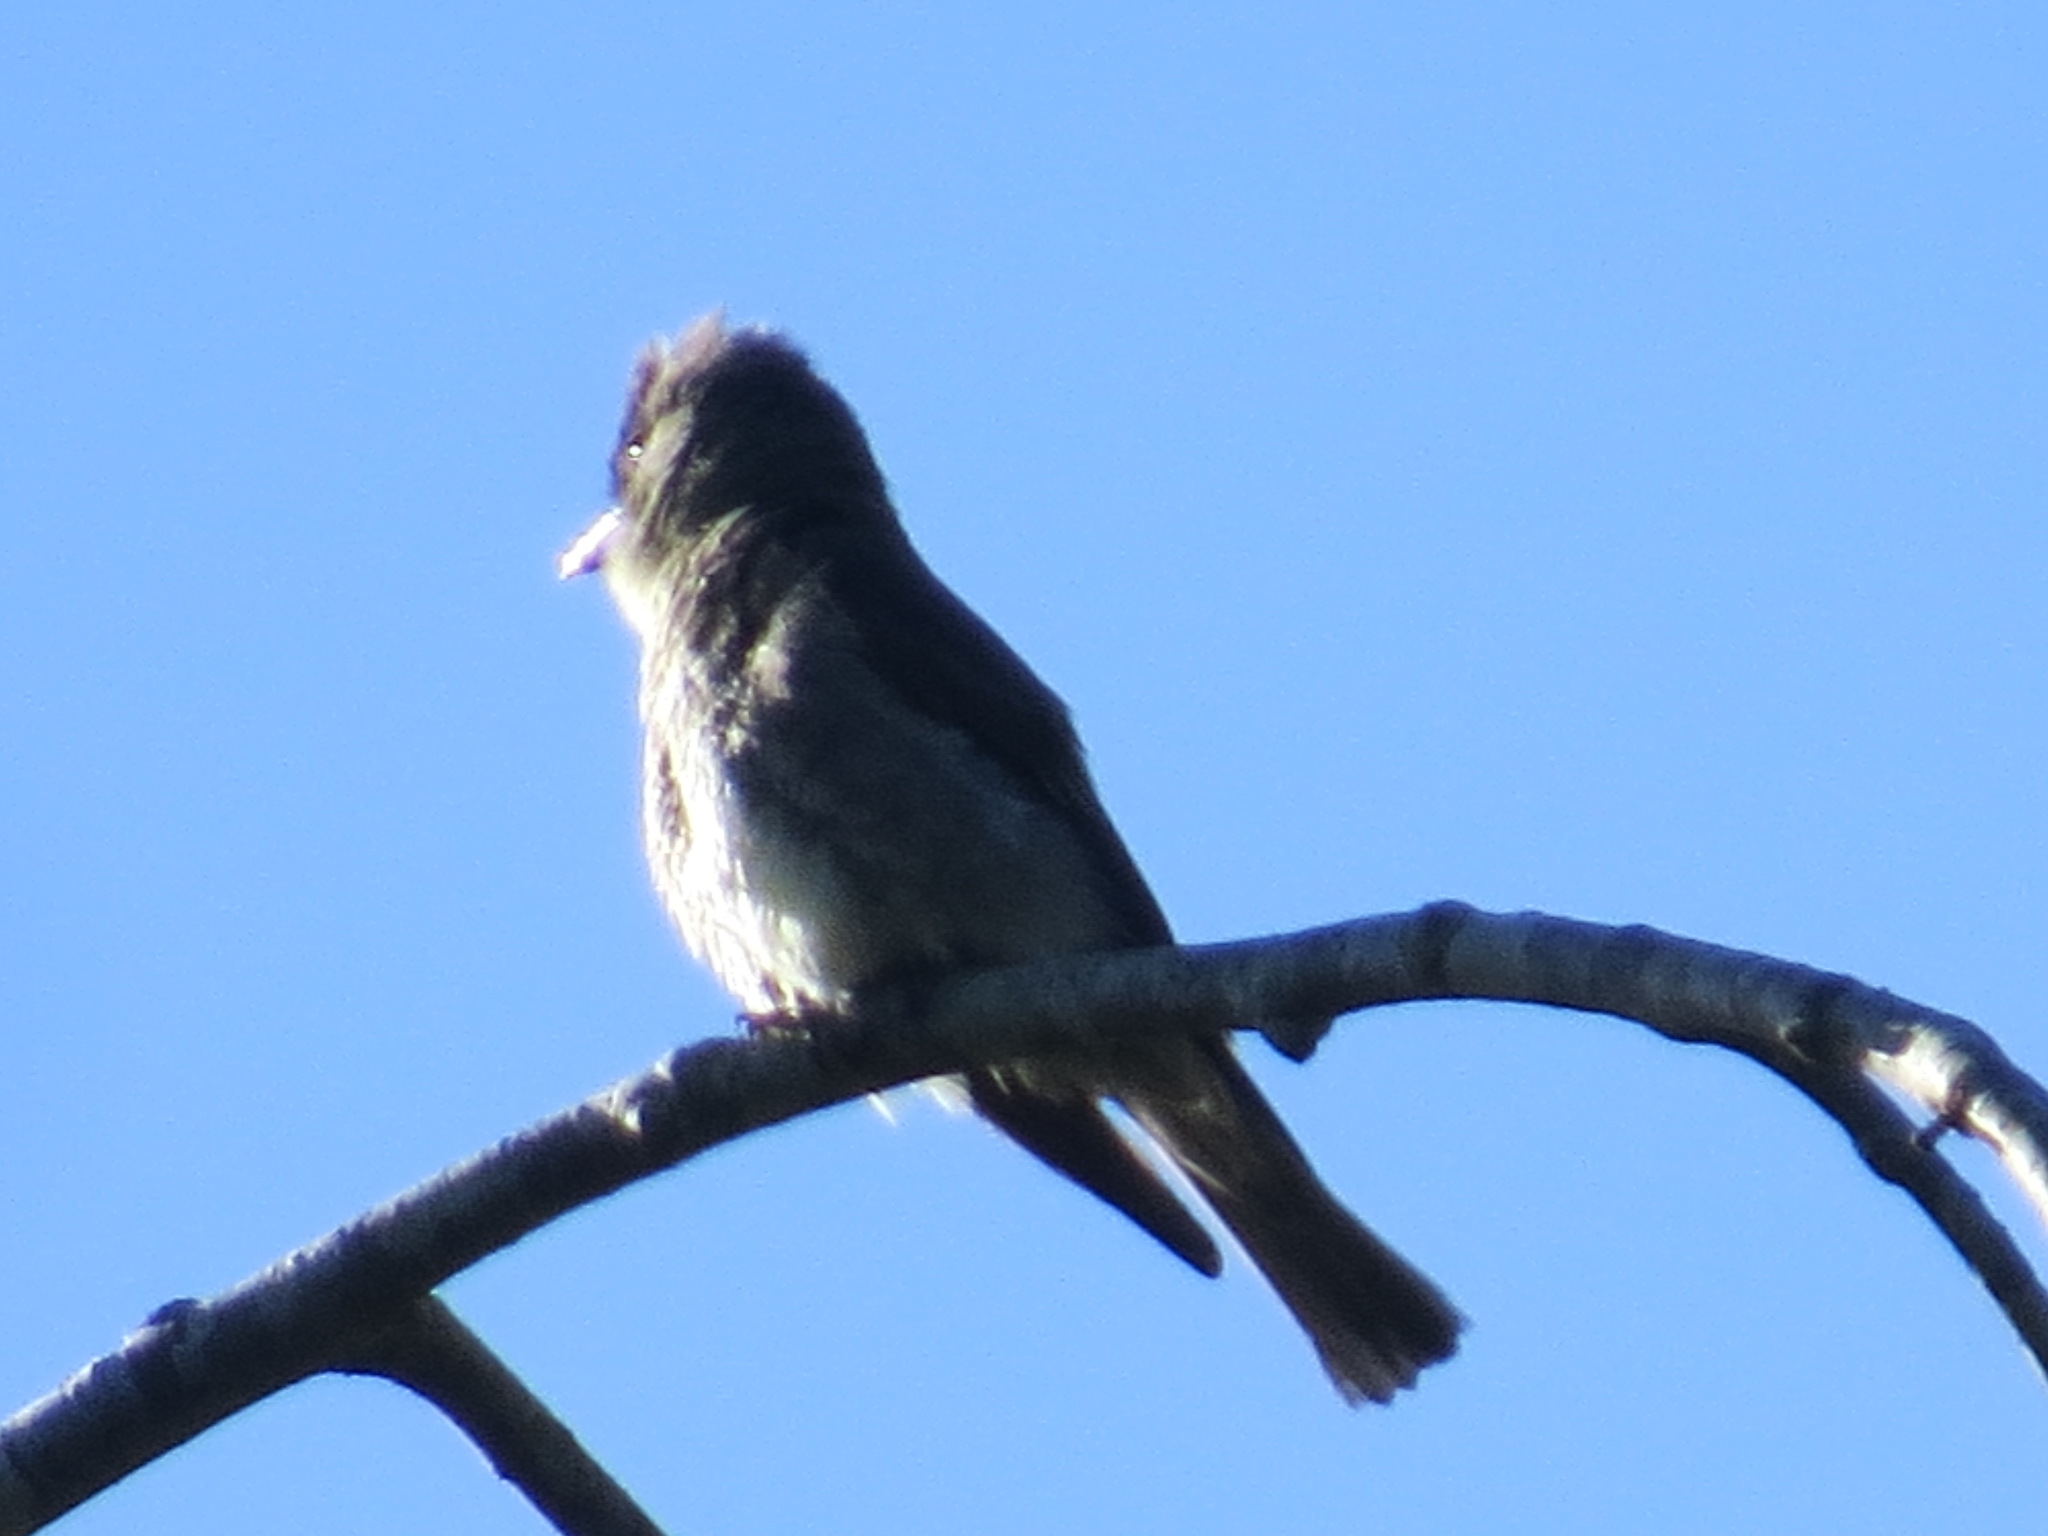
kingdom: Animalia
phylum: Chordata
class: Aves
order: Passeriformes
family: Tyrannidae
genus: Contopus
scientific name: Contopus cooperi
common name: Olive-sided flycatcher
